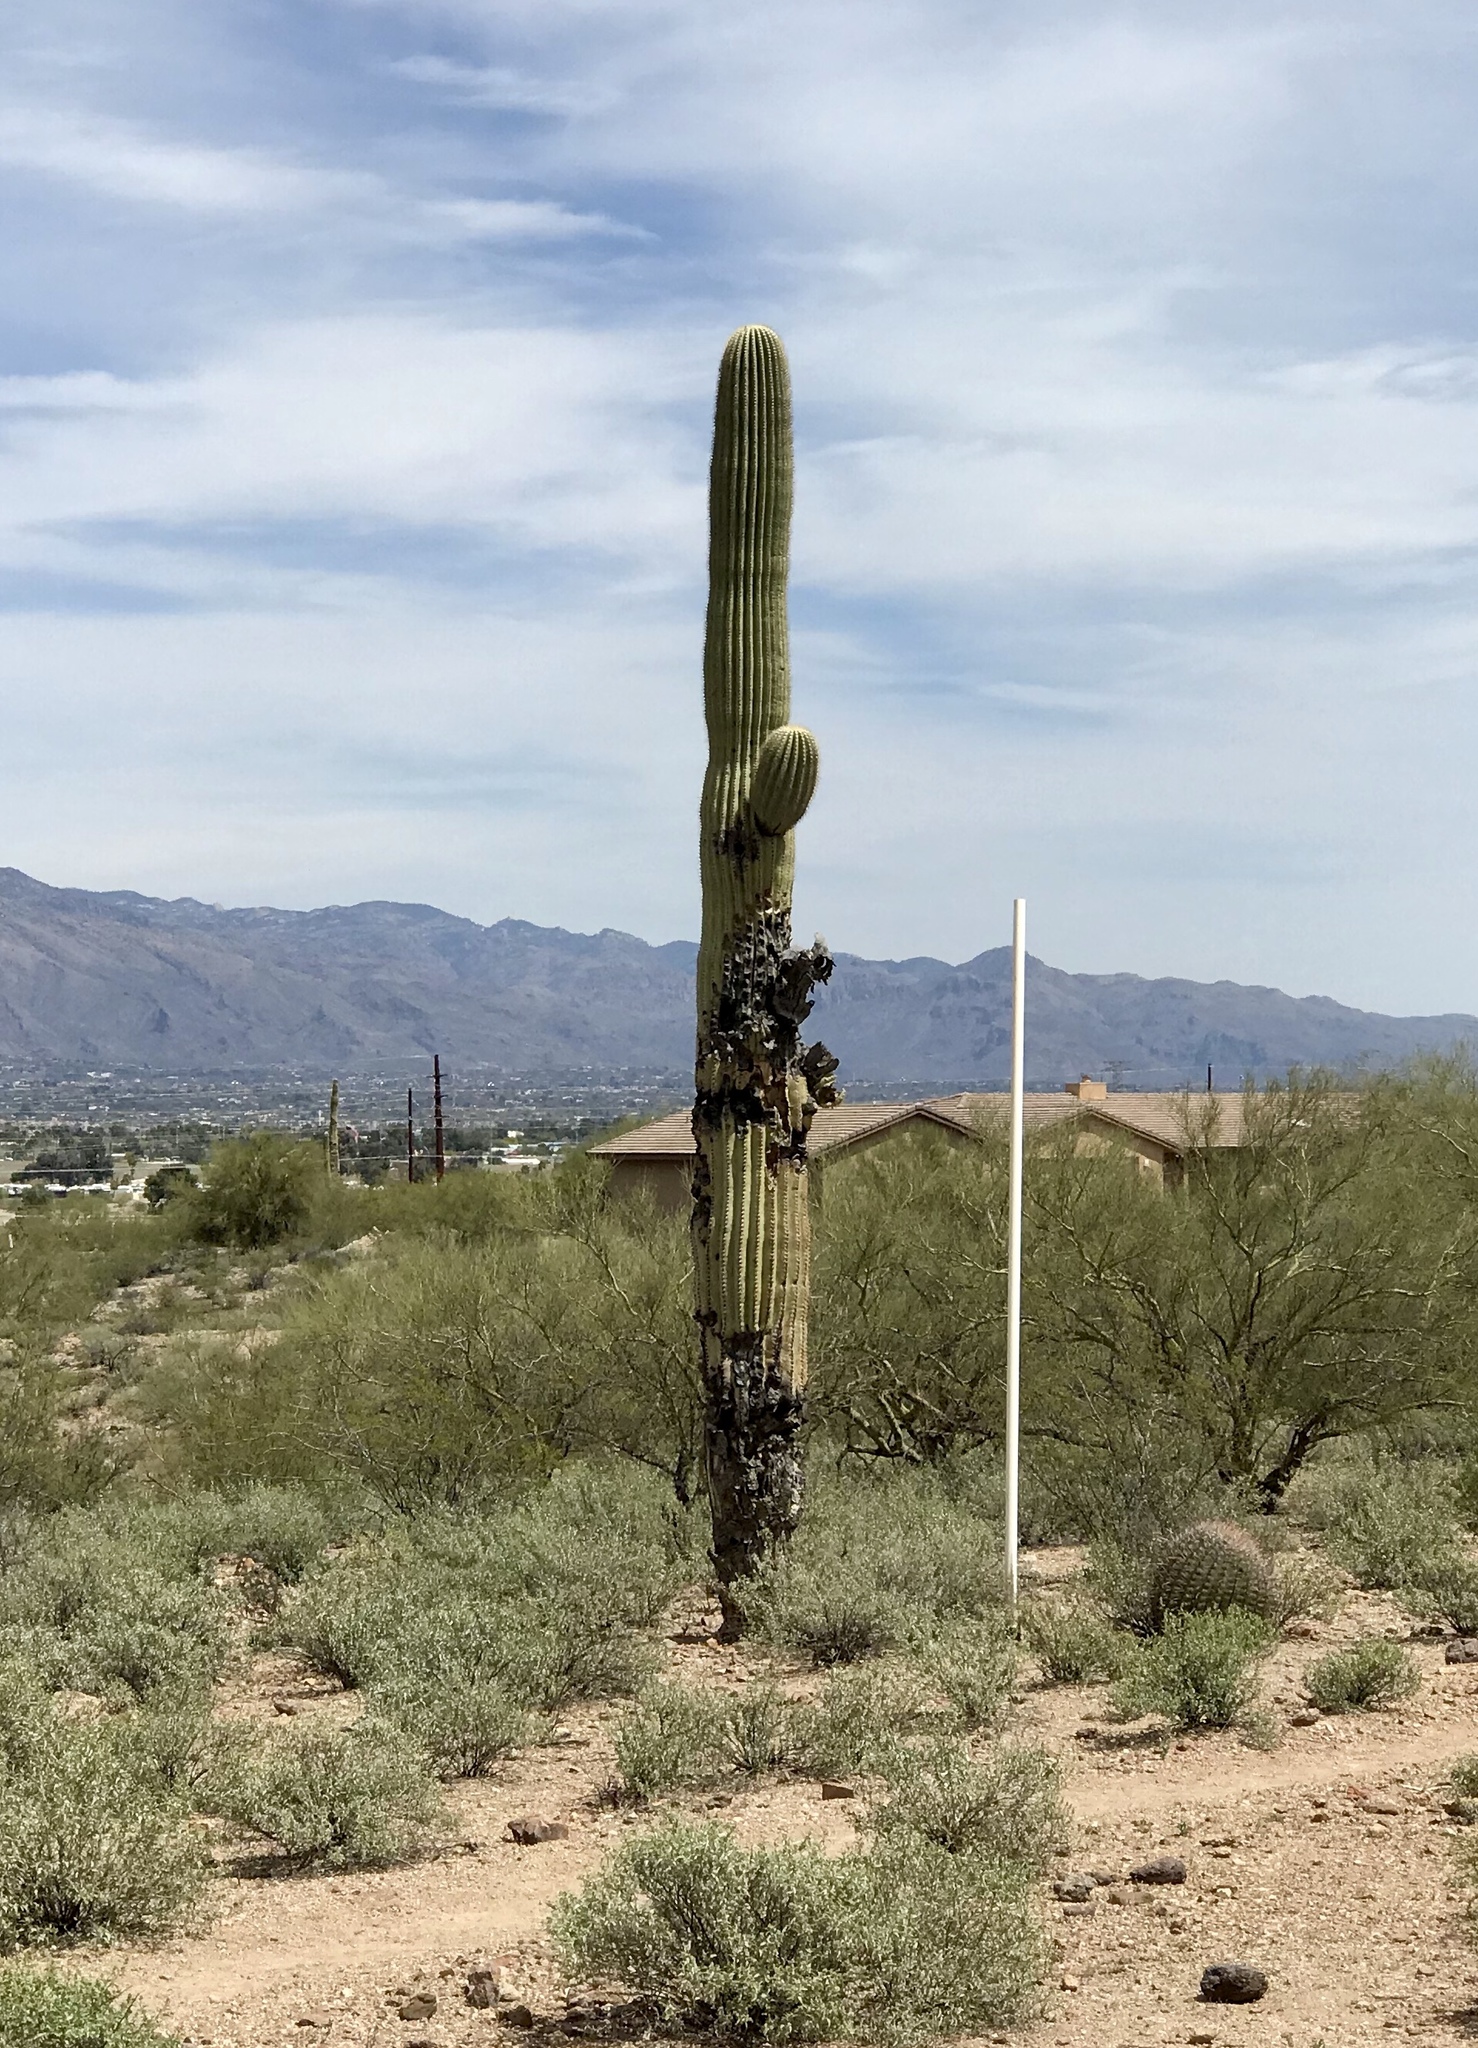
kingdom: Plantae
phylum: Tracheophyta
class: Magnoliopsida
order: Caryophyllales
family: Cactaceae
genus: Carnegiea
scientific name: Carnegiea gigantea
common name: Saguaro
